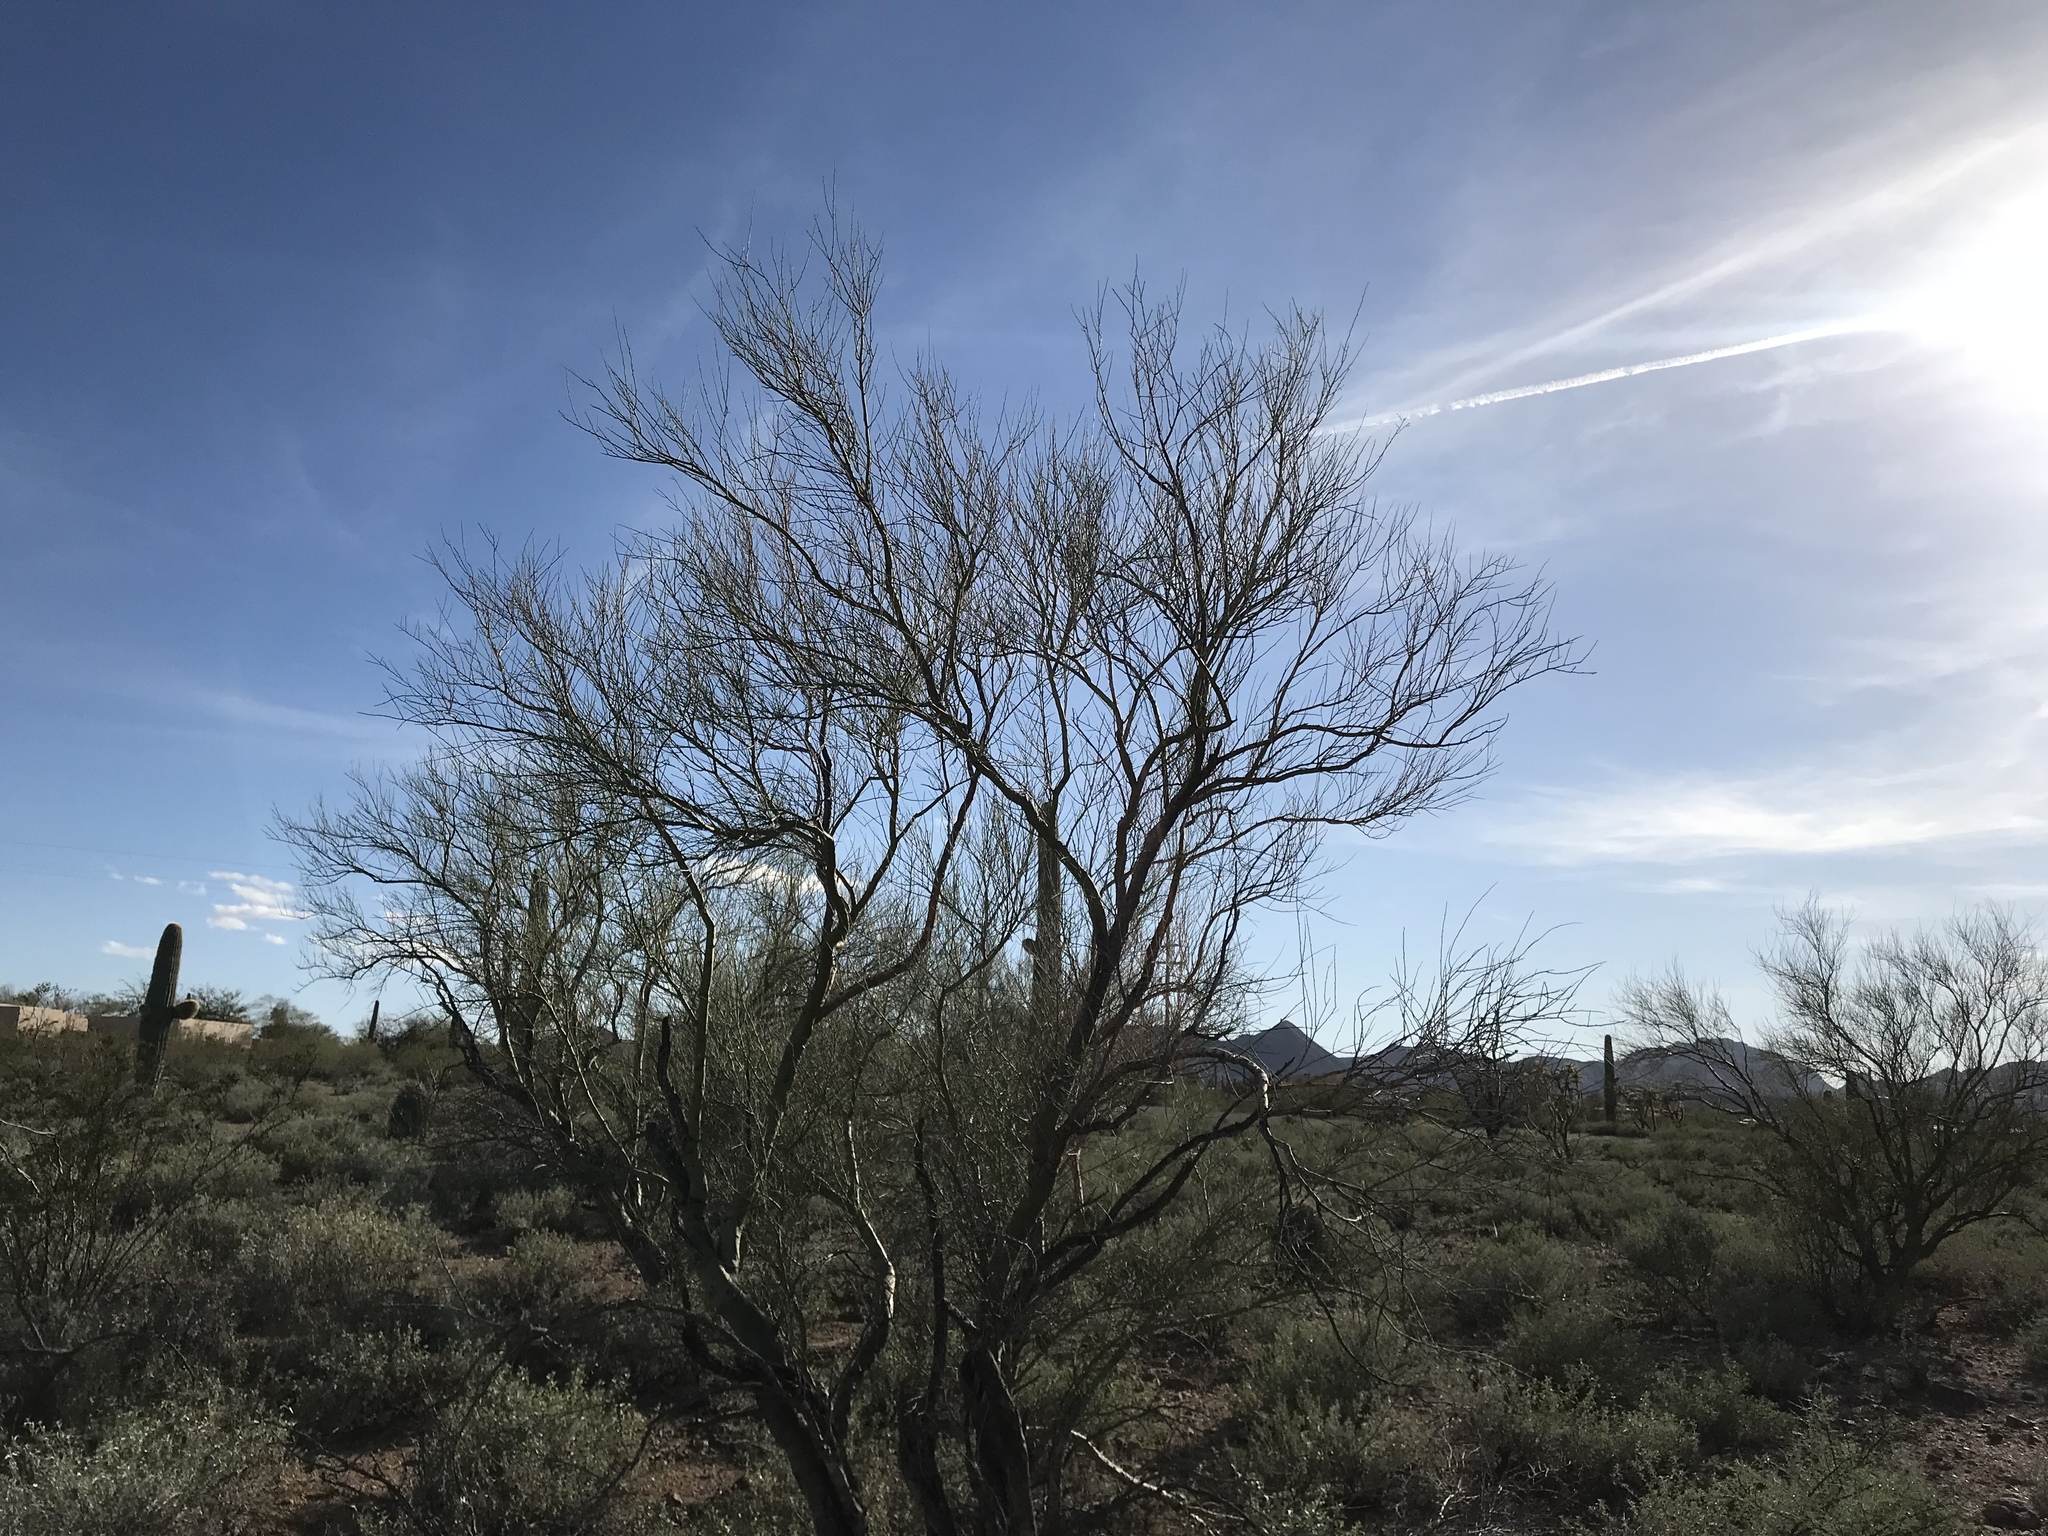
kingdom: Plantae
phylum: Tracheophyta
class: Magnoliopsida
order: Fabales
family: Fabaceae
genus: Parkinsonia
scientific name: Parkinsonia microphylla
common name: Yellow paloverde
